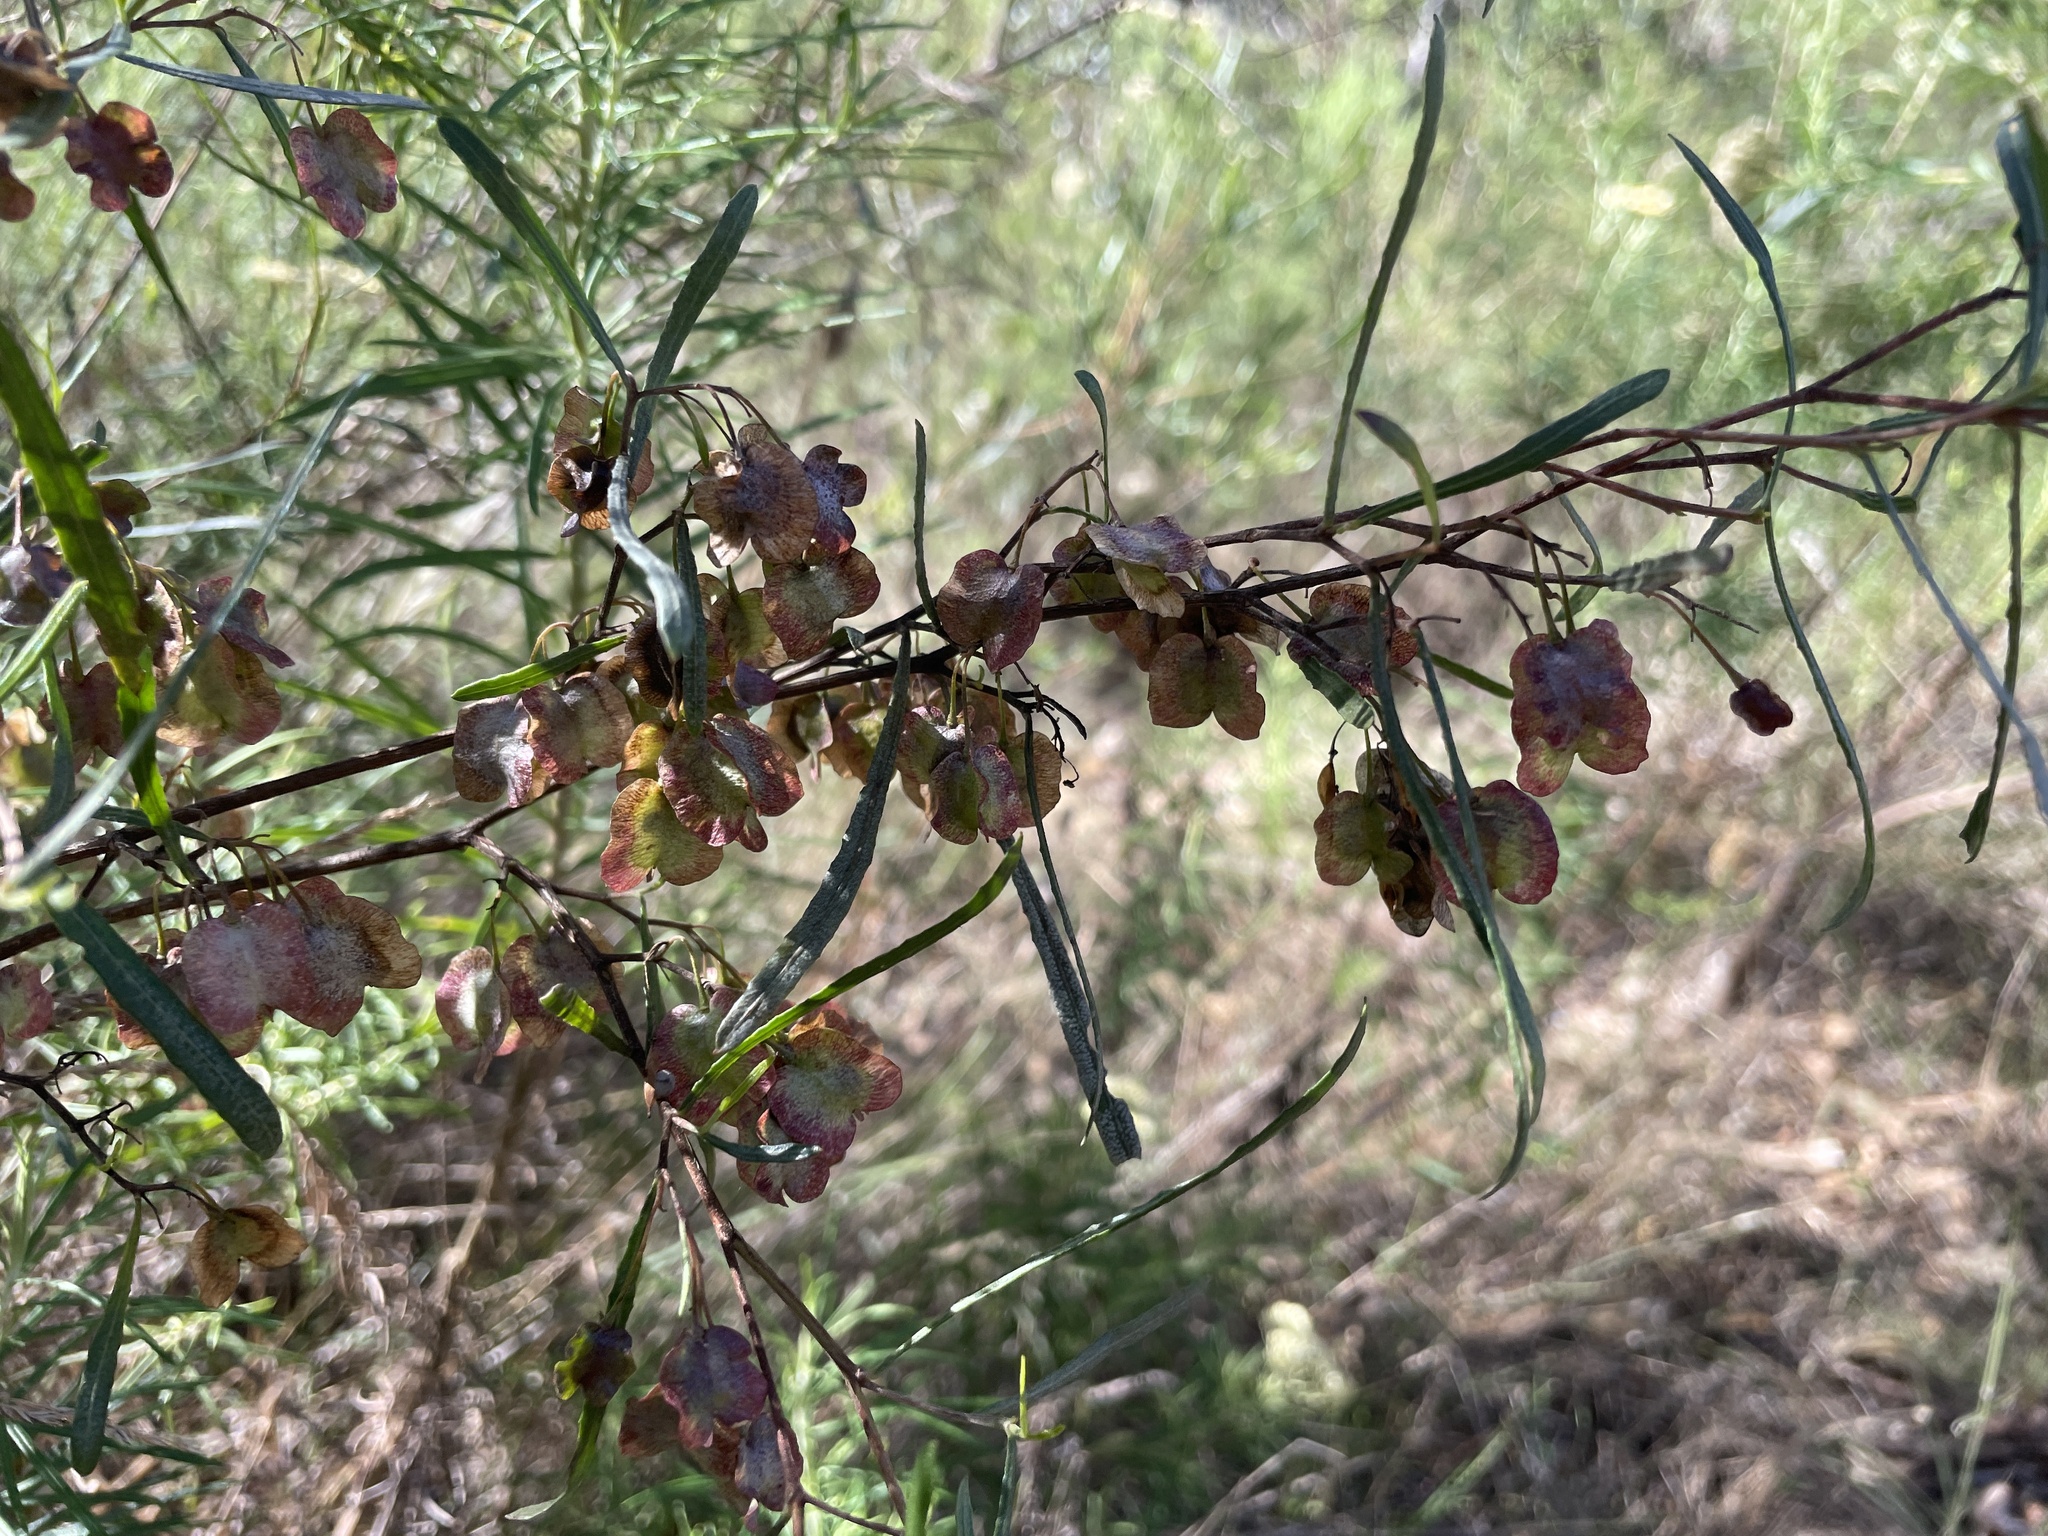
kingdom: Plantae
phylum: Tracheophyta
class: Magnoliopsida
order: Sapindales
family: Sapindaceae
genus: Dodonaea
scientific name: Dodonaea viscosa
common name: Hopbush
